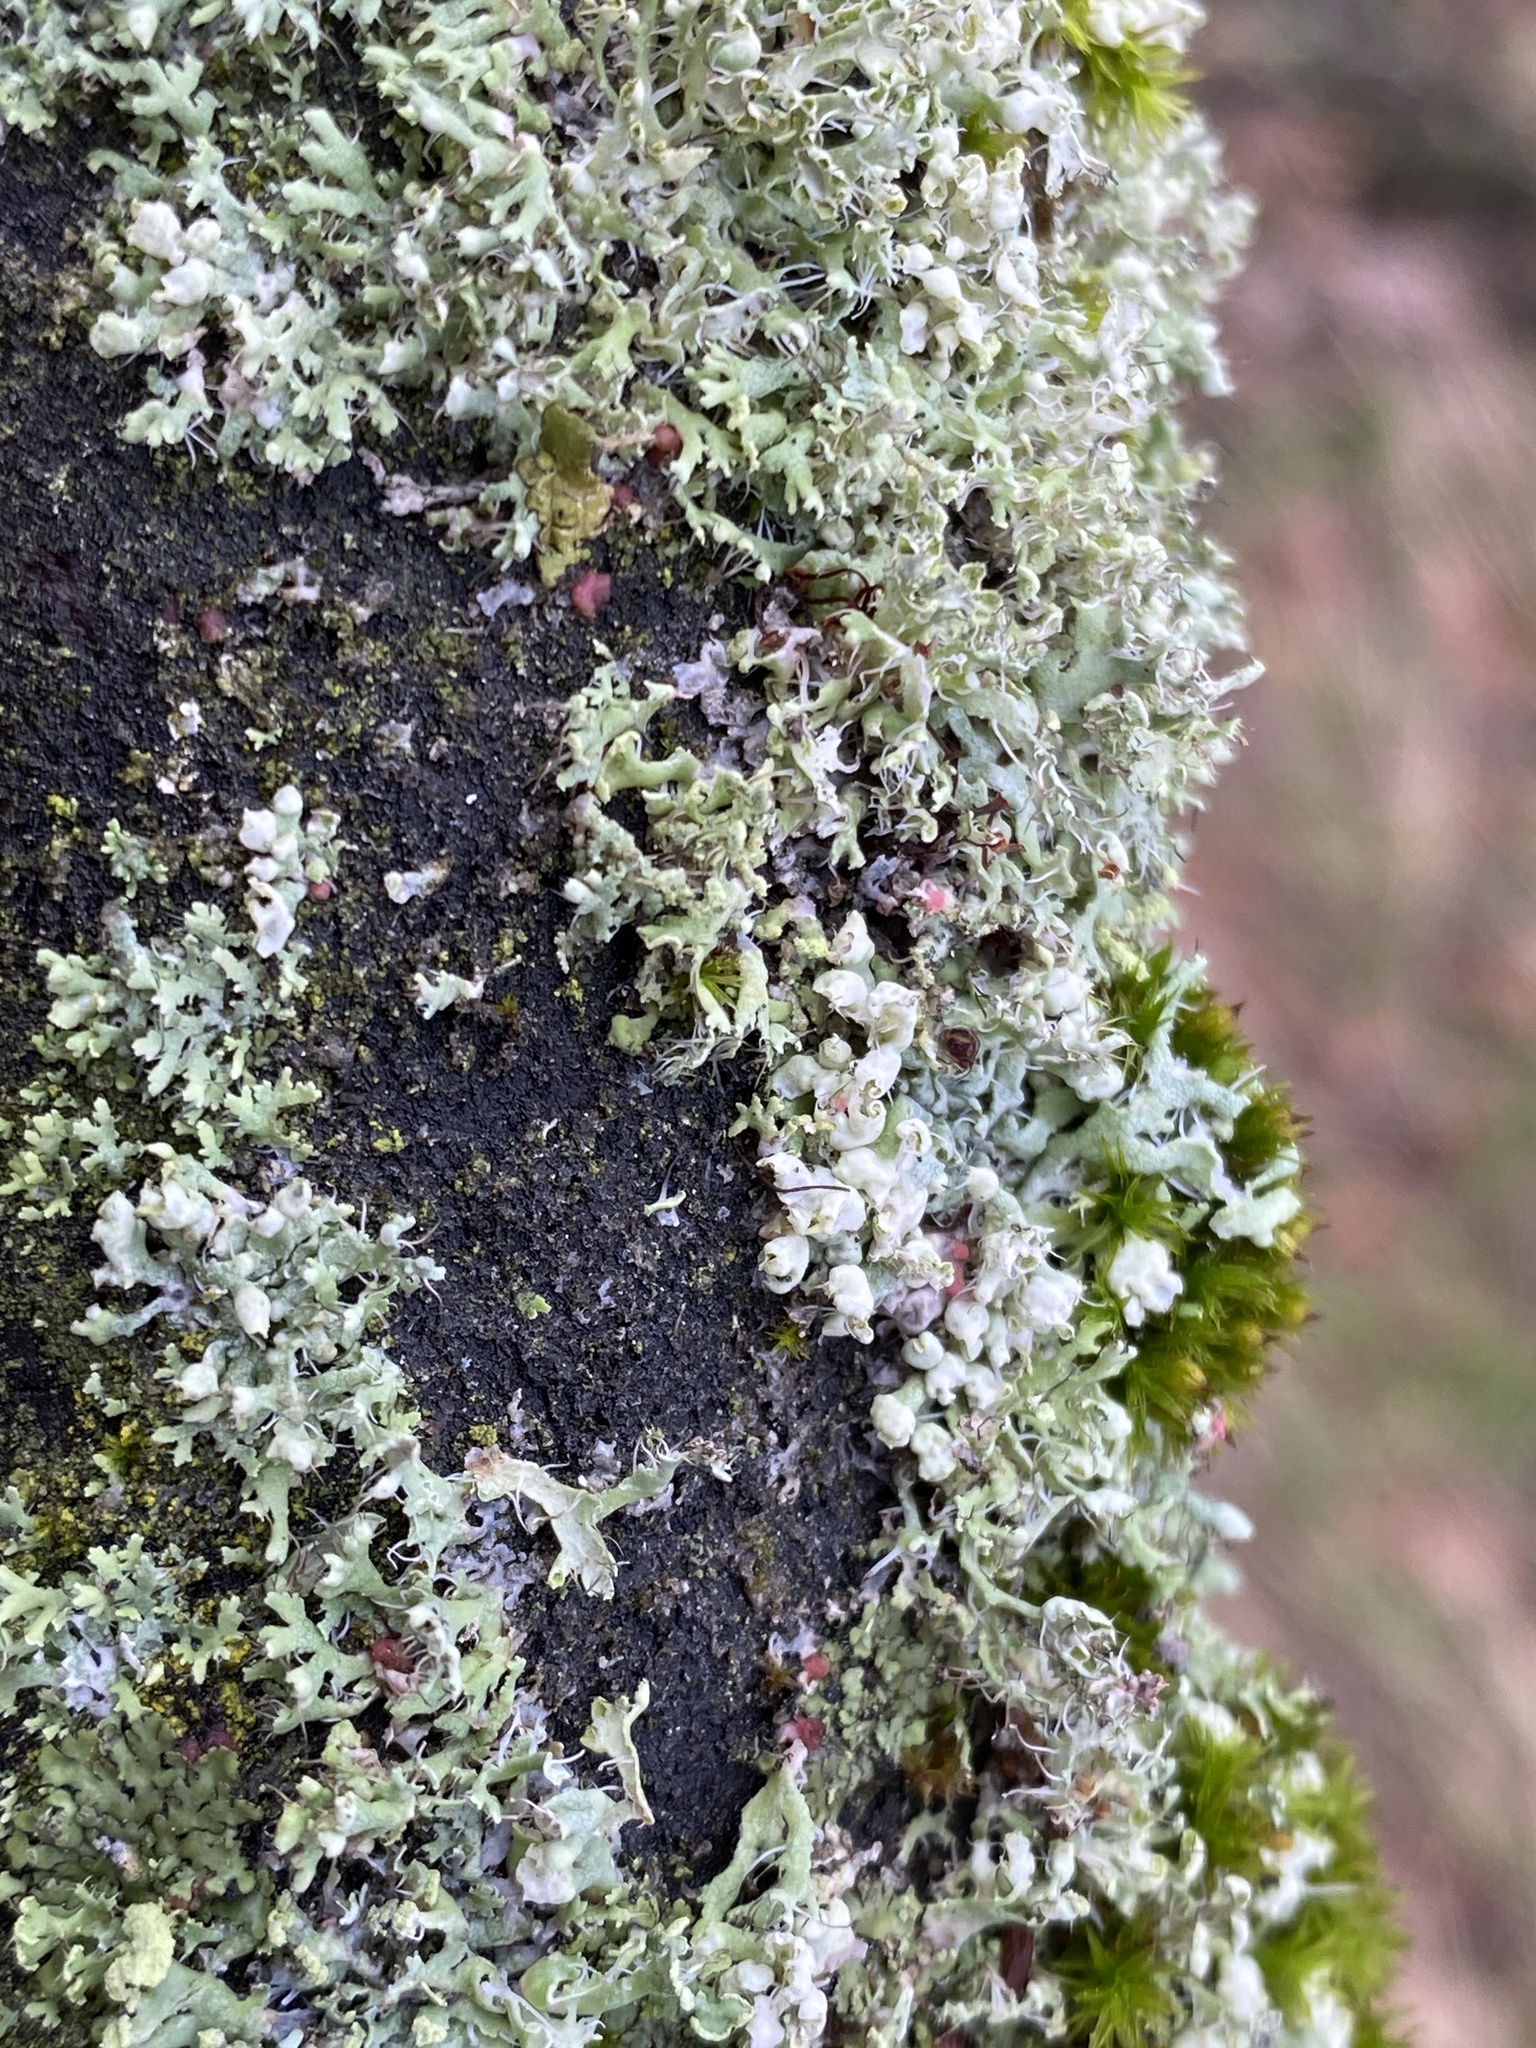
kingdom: Fungi
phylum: Ascomycota
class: Sordariomycetes
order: Hypocreales
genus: Illosporiopsis
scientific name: Illosporiopsis christiansenii
